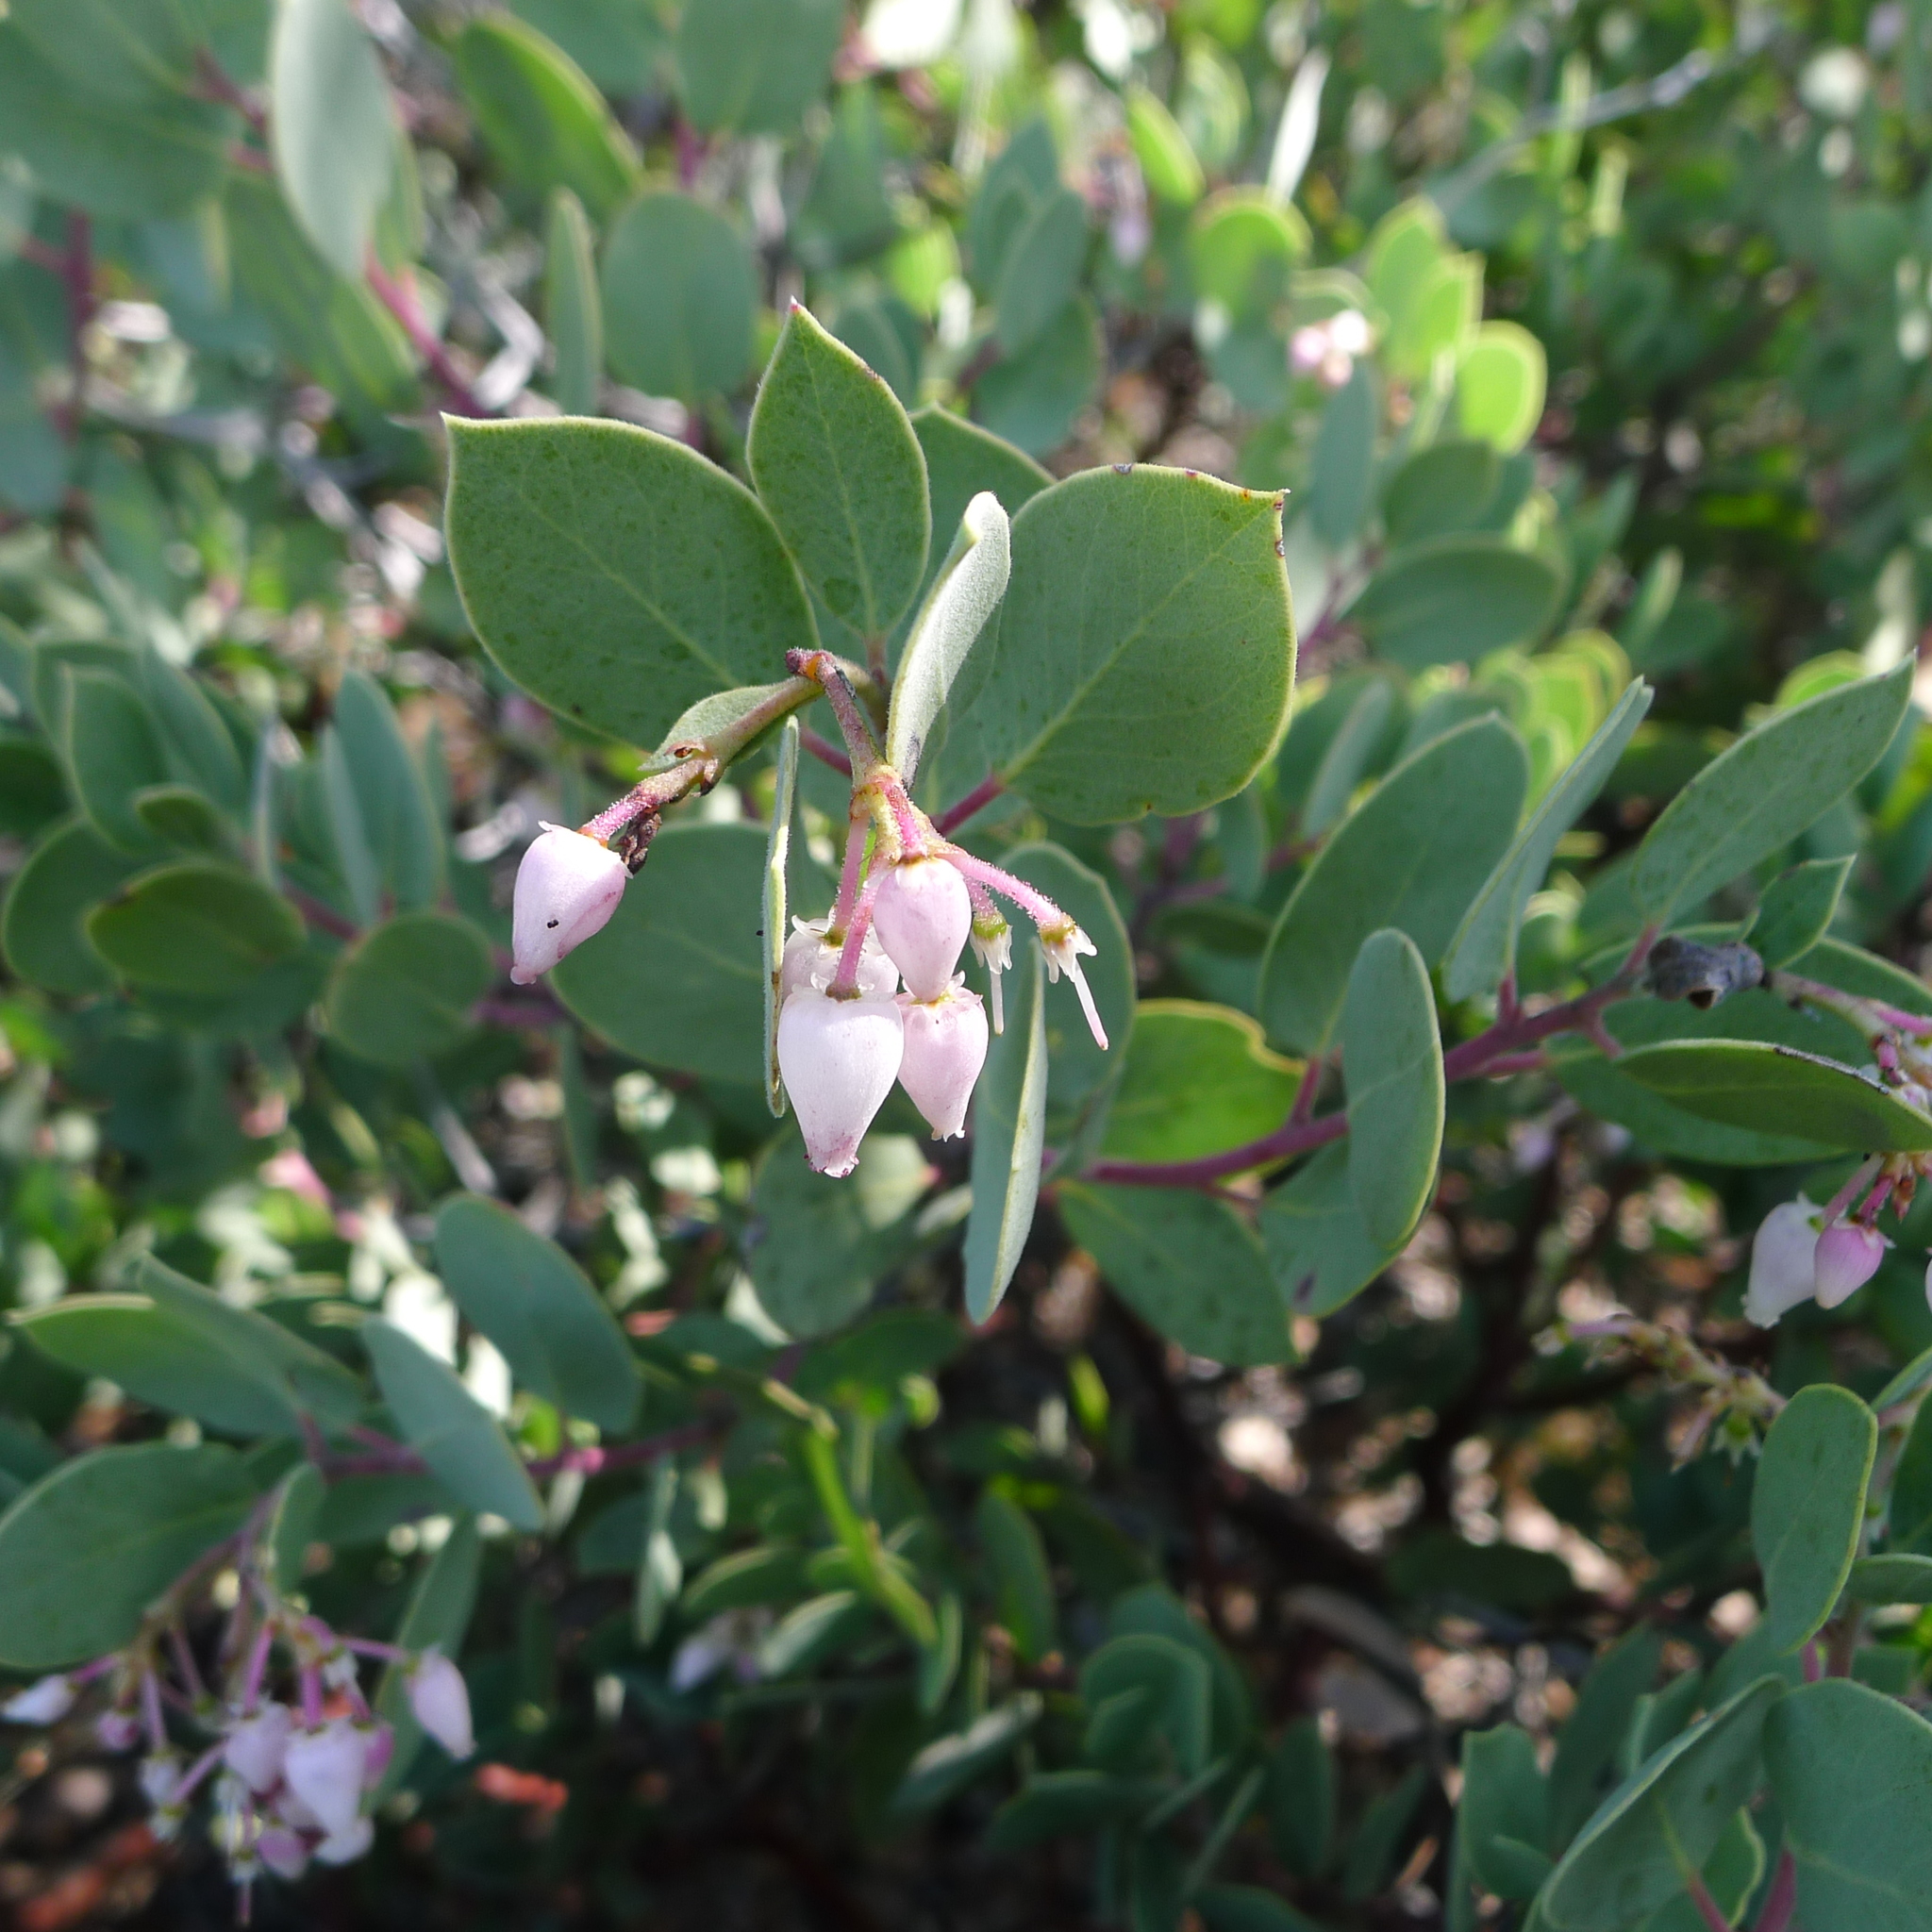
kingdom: Plantae
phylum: Tracheophyta
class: Magnoliopsida
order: Ericales
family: Ericaceae
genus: Arctostaphylos
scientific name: Arctostaphylos viscida
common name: White-leaf manzanita
